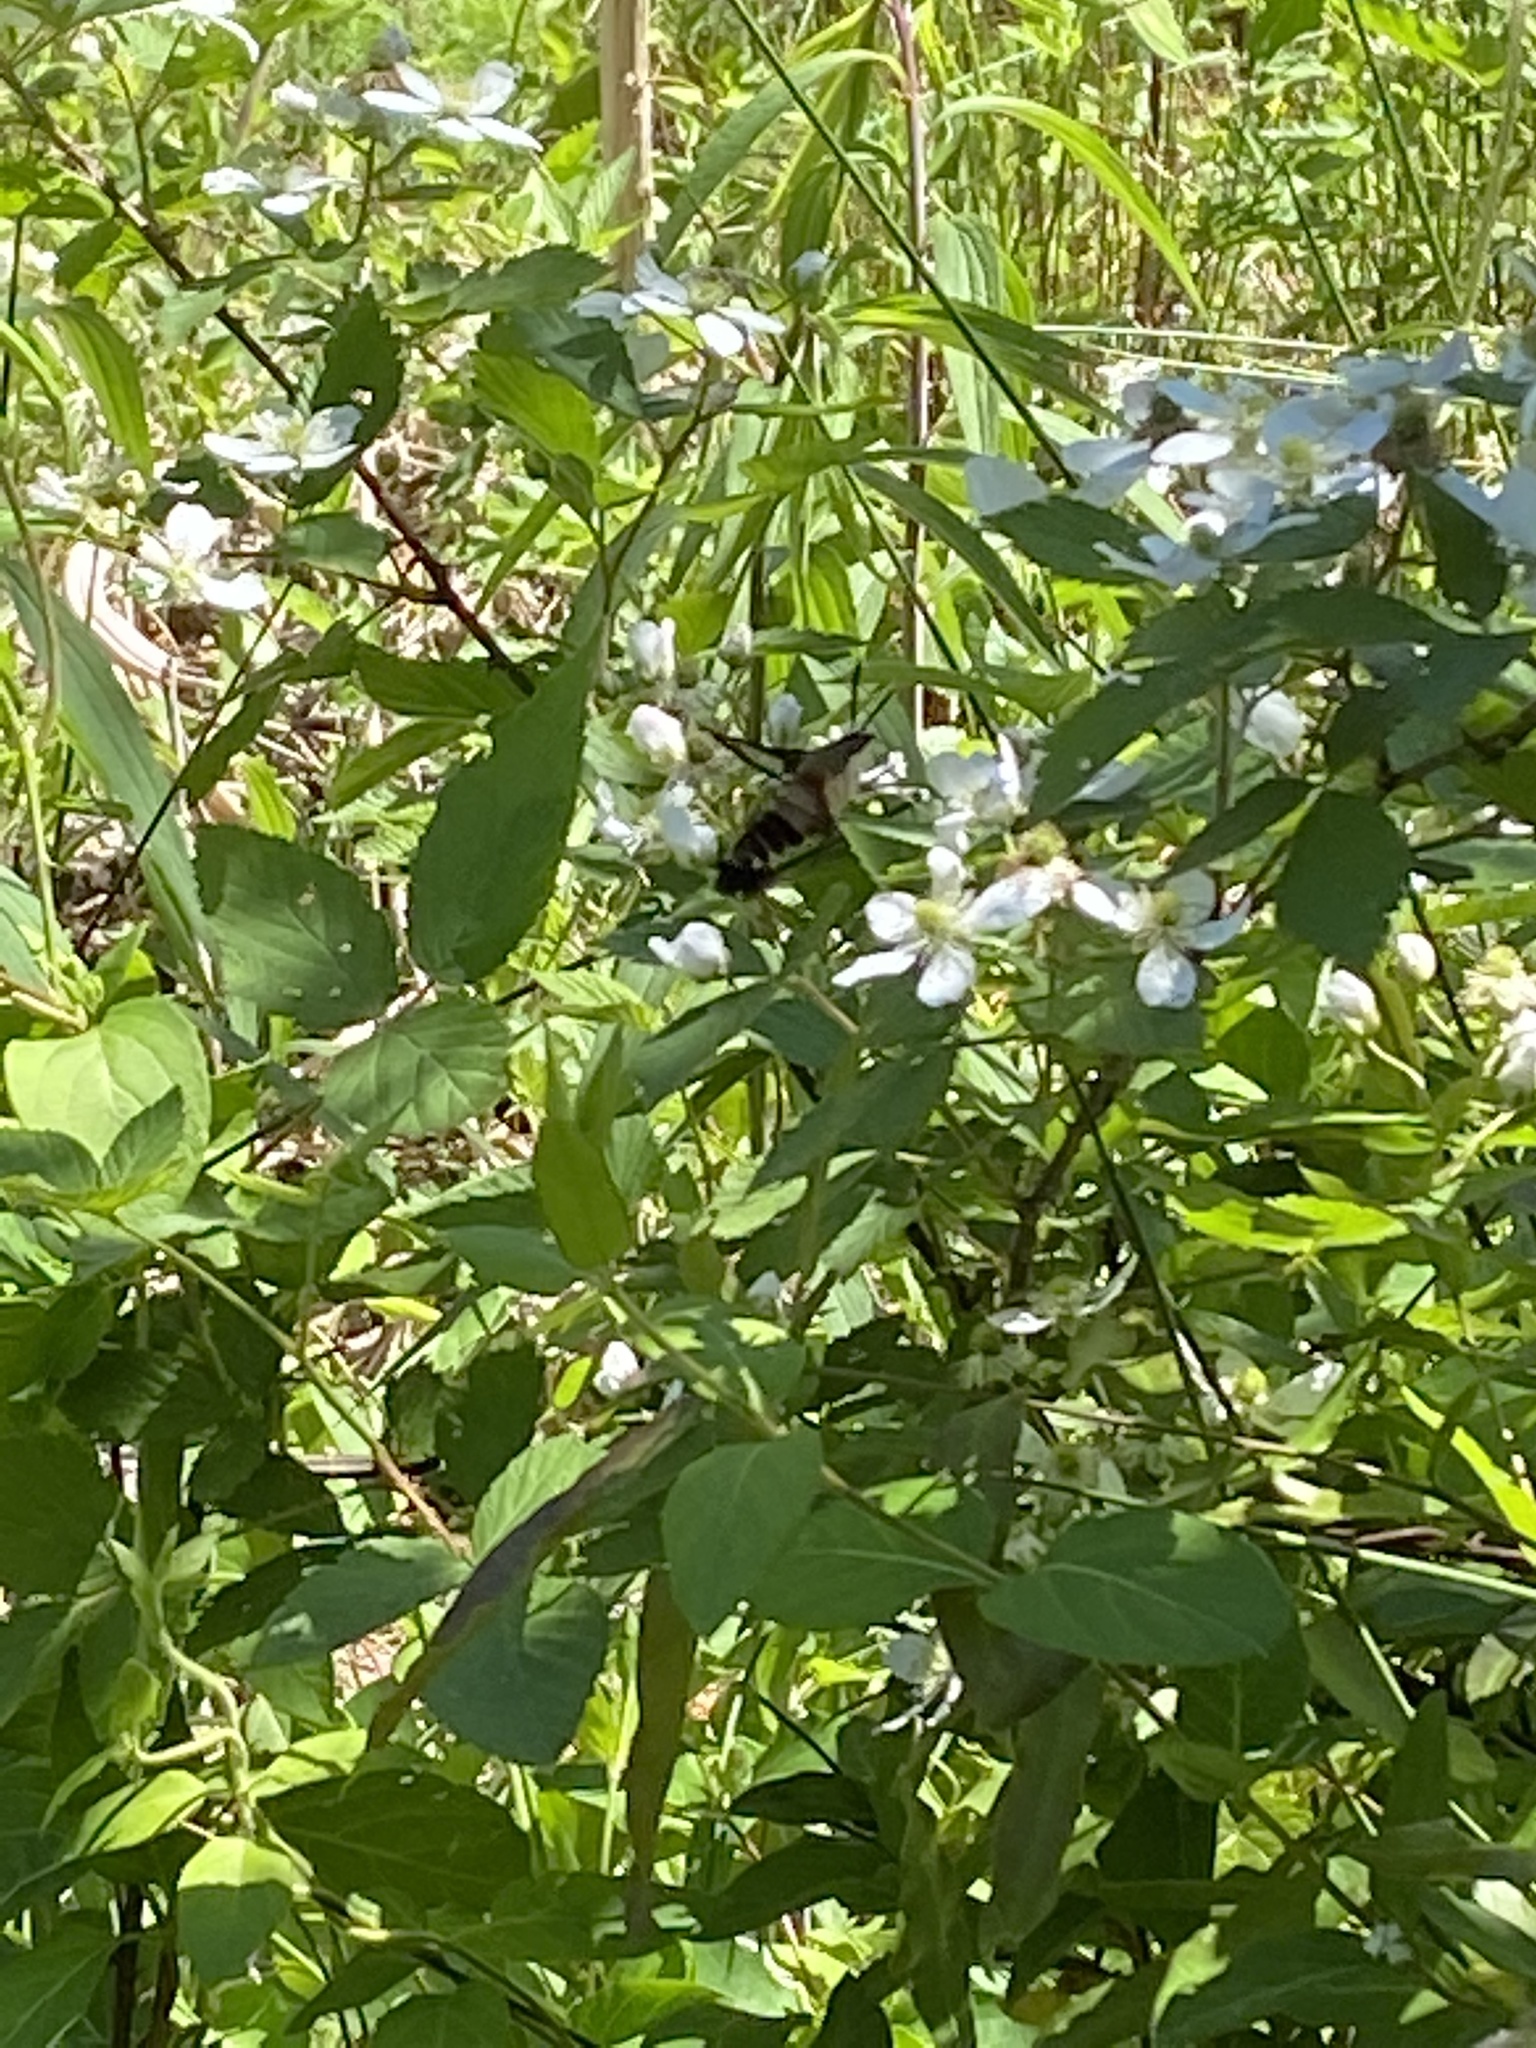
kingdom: Animalia
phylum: Arthropoda
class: Insecta
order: Lepidoptera
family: Sphingidae
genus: Hemaris
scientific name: Hemaris thysbe
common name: Common clear-wing
